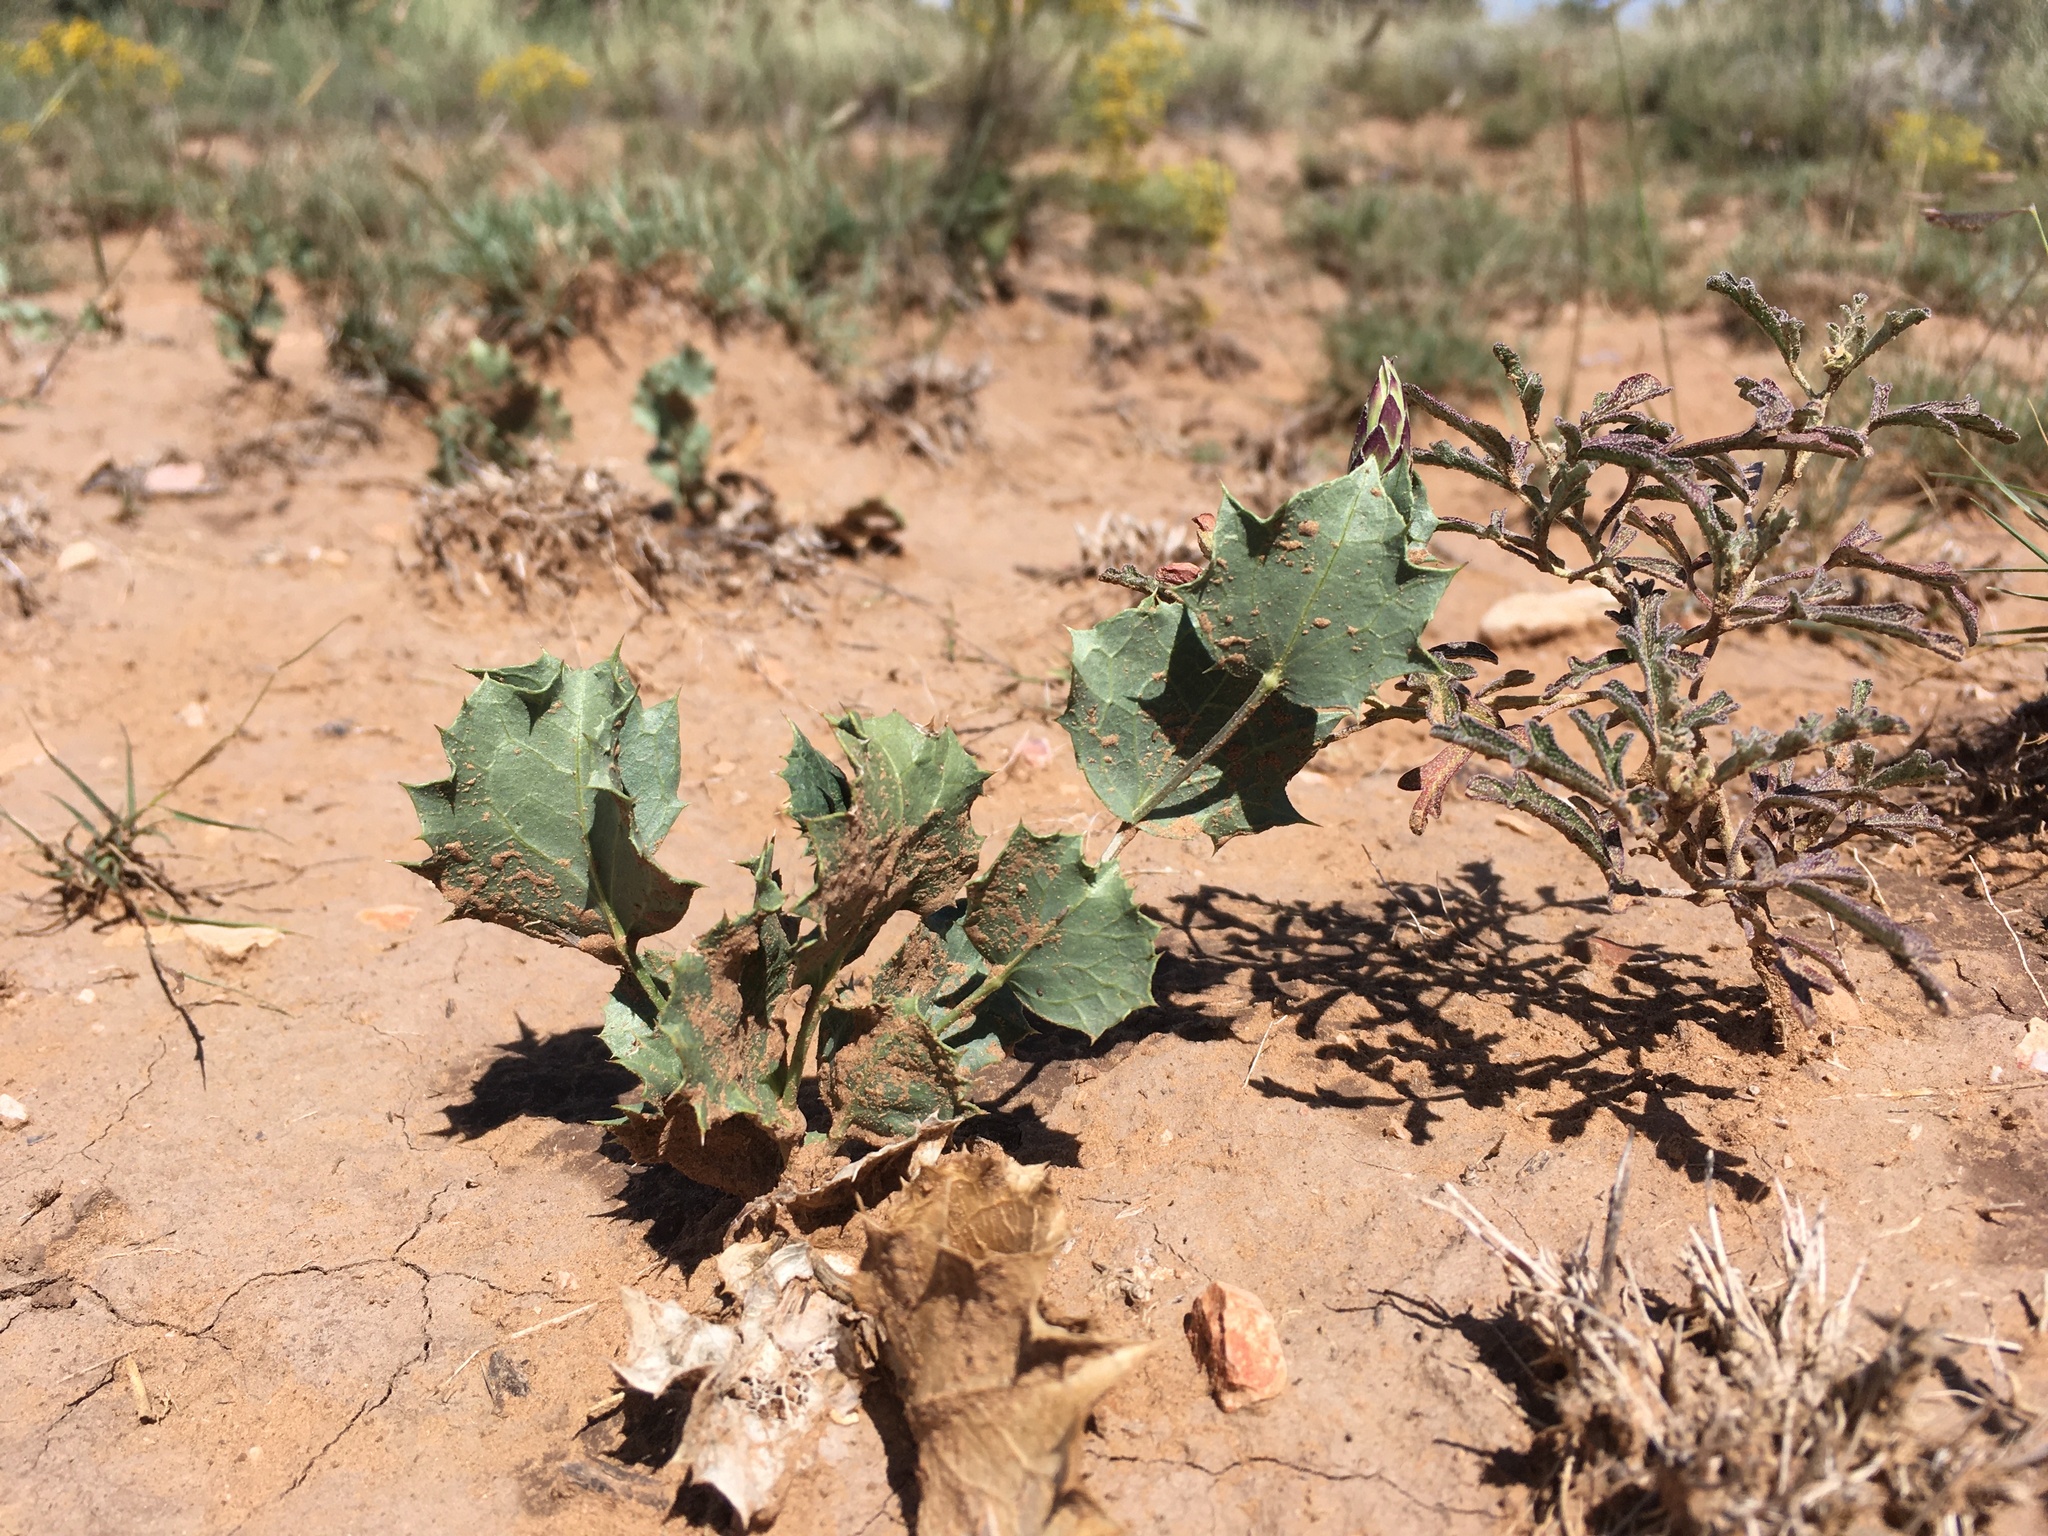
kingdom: Plantae
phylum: Tracheophyta
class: Magnoliopsida
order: Asterales
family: Asteraceae
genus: Acourtia
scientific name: Acourtia nana
